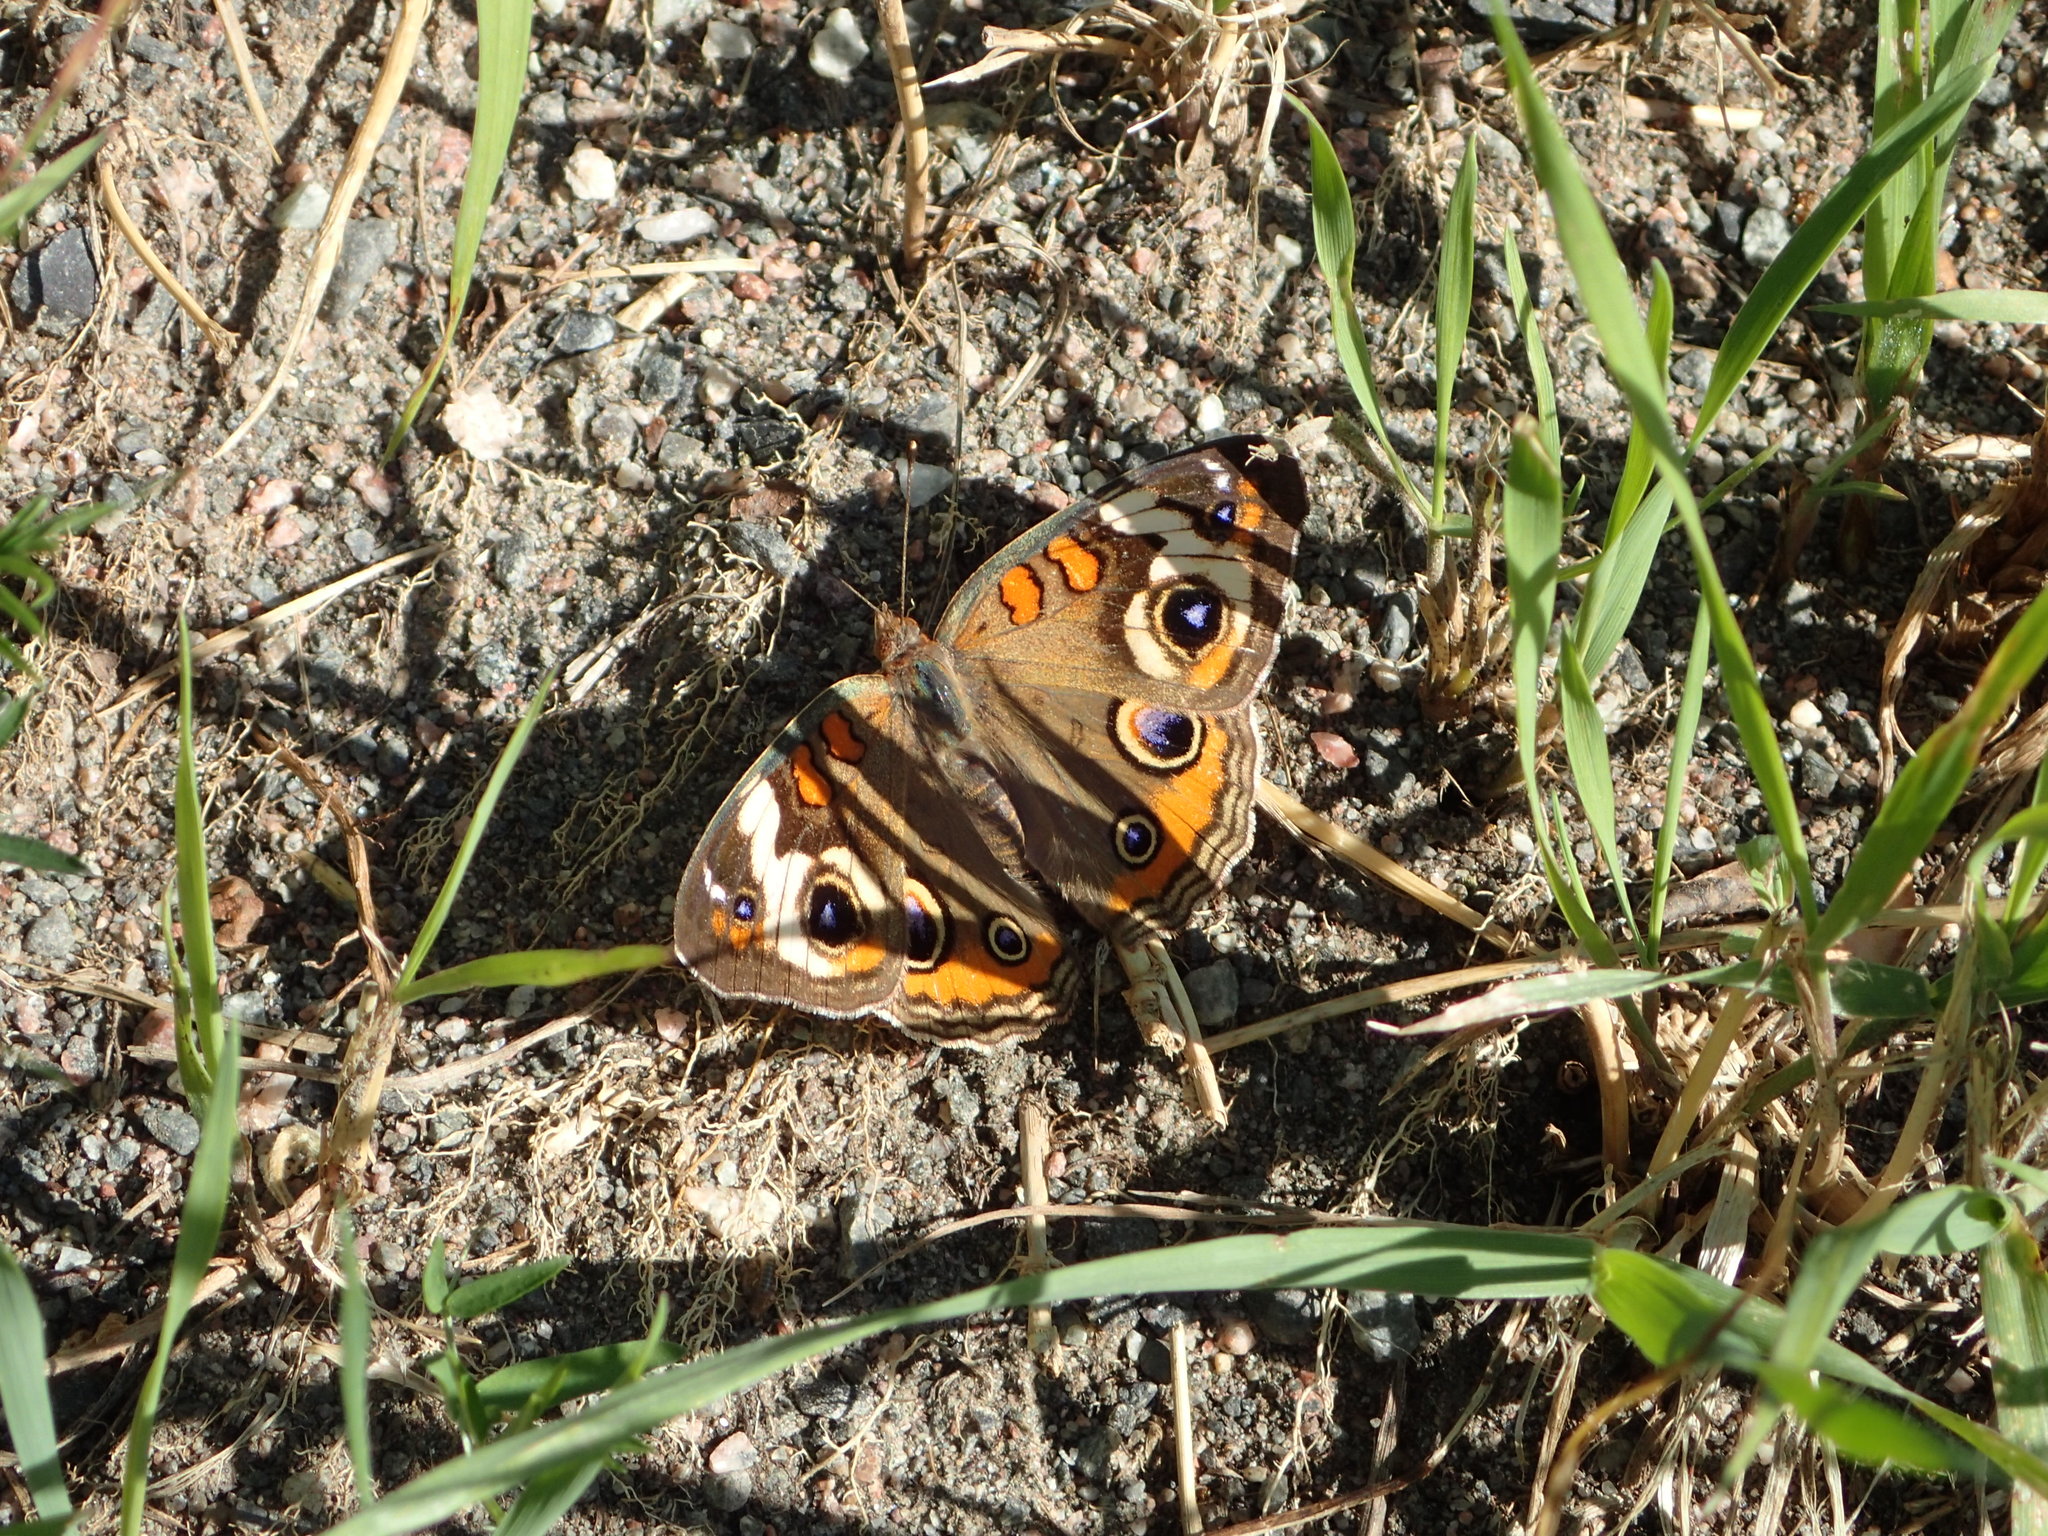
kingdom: Animalia
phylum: Arthropoda
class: Insecta
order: Lepidoptera
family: Nymphalidae
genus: Junonia
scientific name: Junonia coenia
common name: Common buckeye
